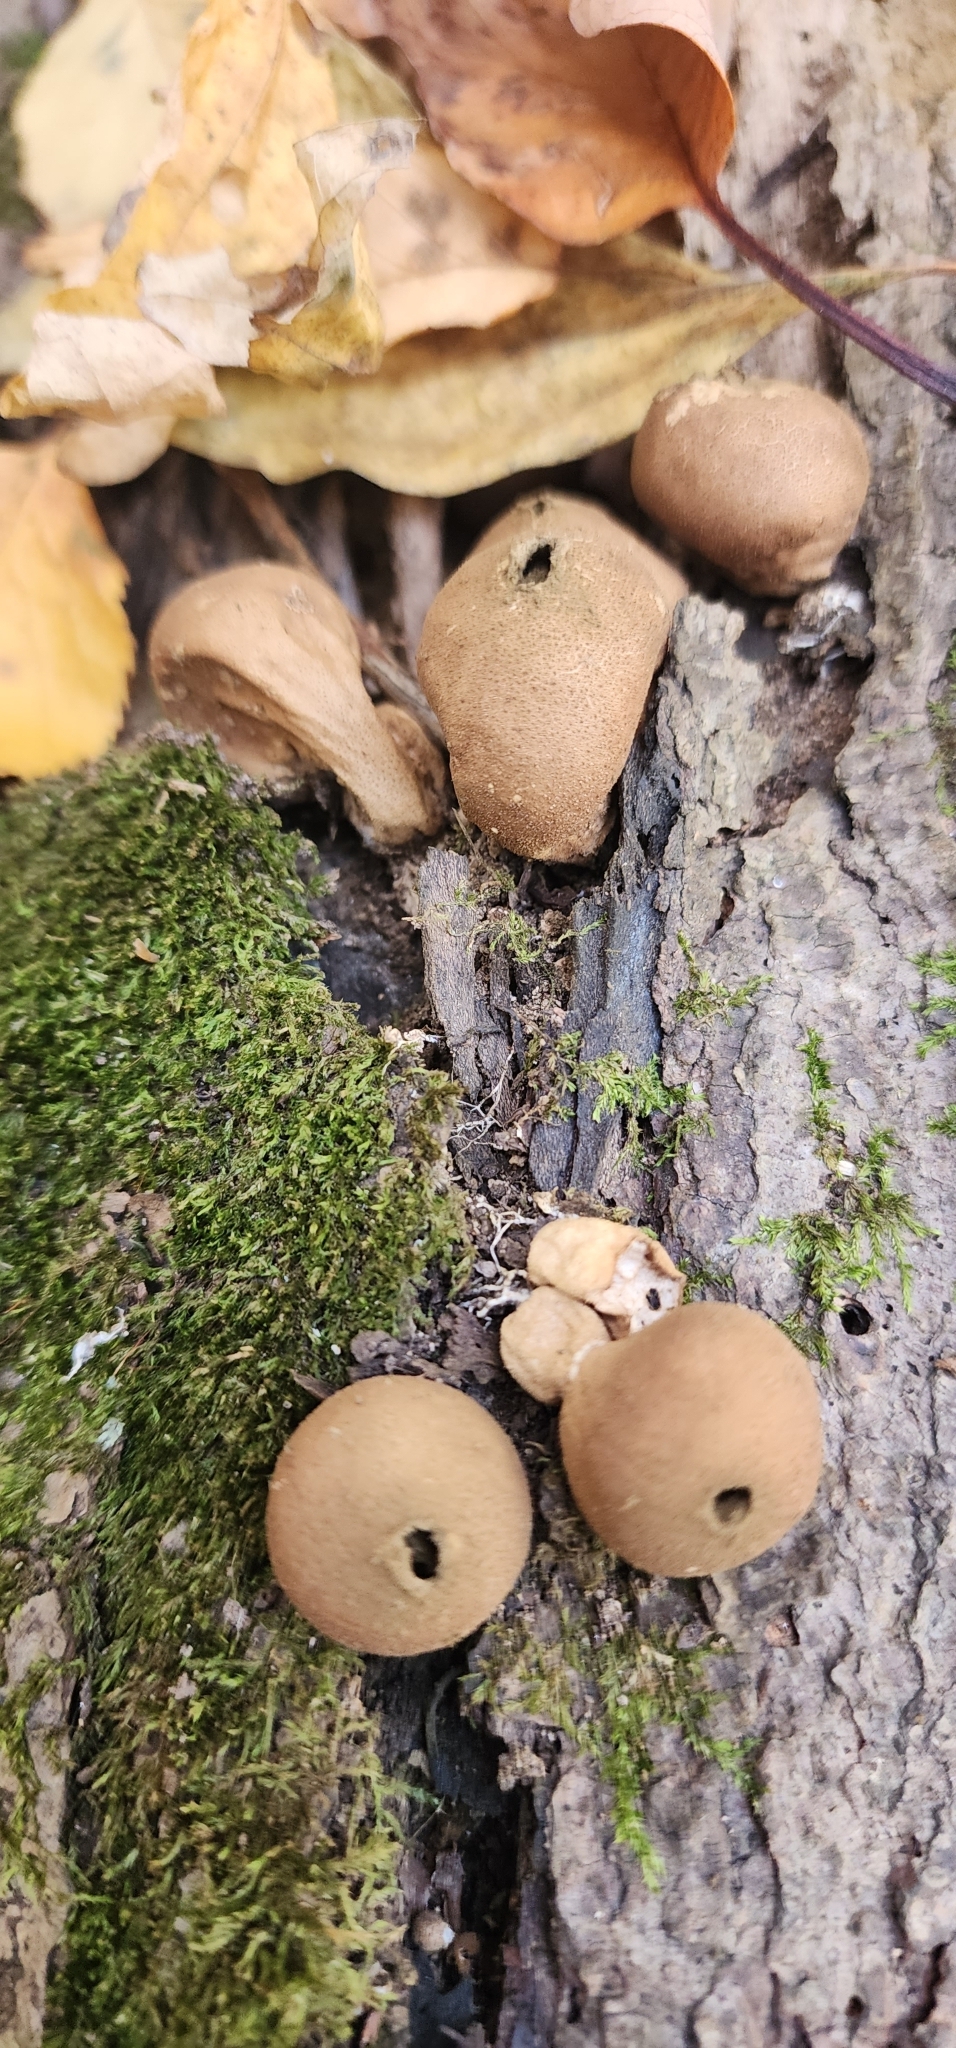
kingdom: Fungi
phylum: Basidiomycota
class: Agaricomycetes
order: Agaricales
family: Lycoperdaceae
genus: Apioperdon
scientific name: Apioperdon pyriforme
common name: Pear-shaped puffball
